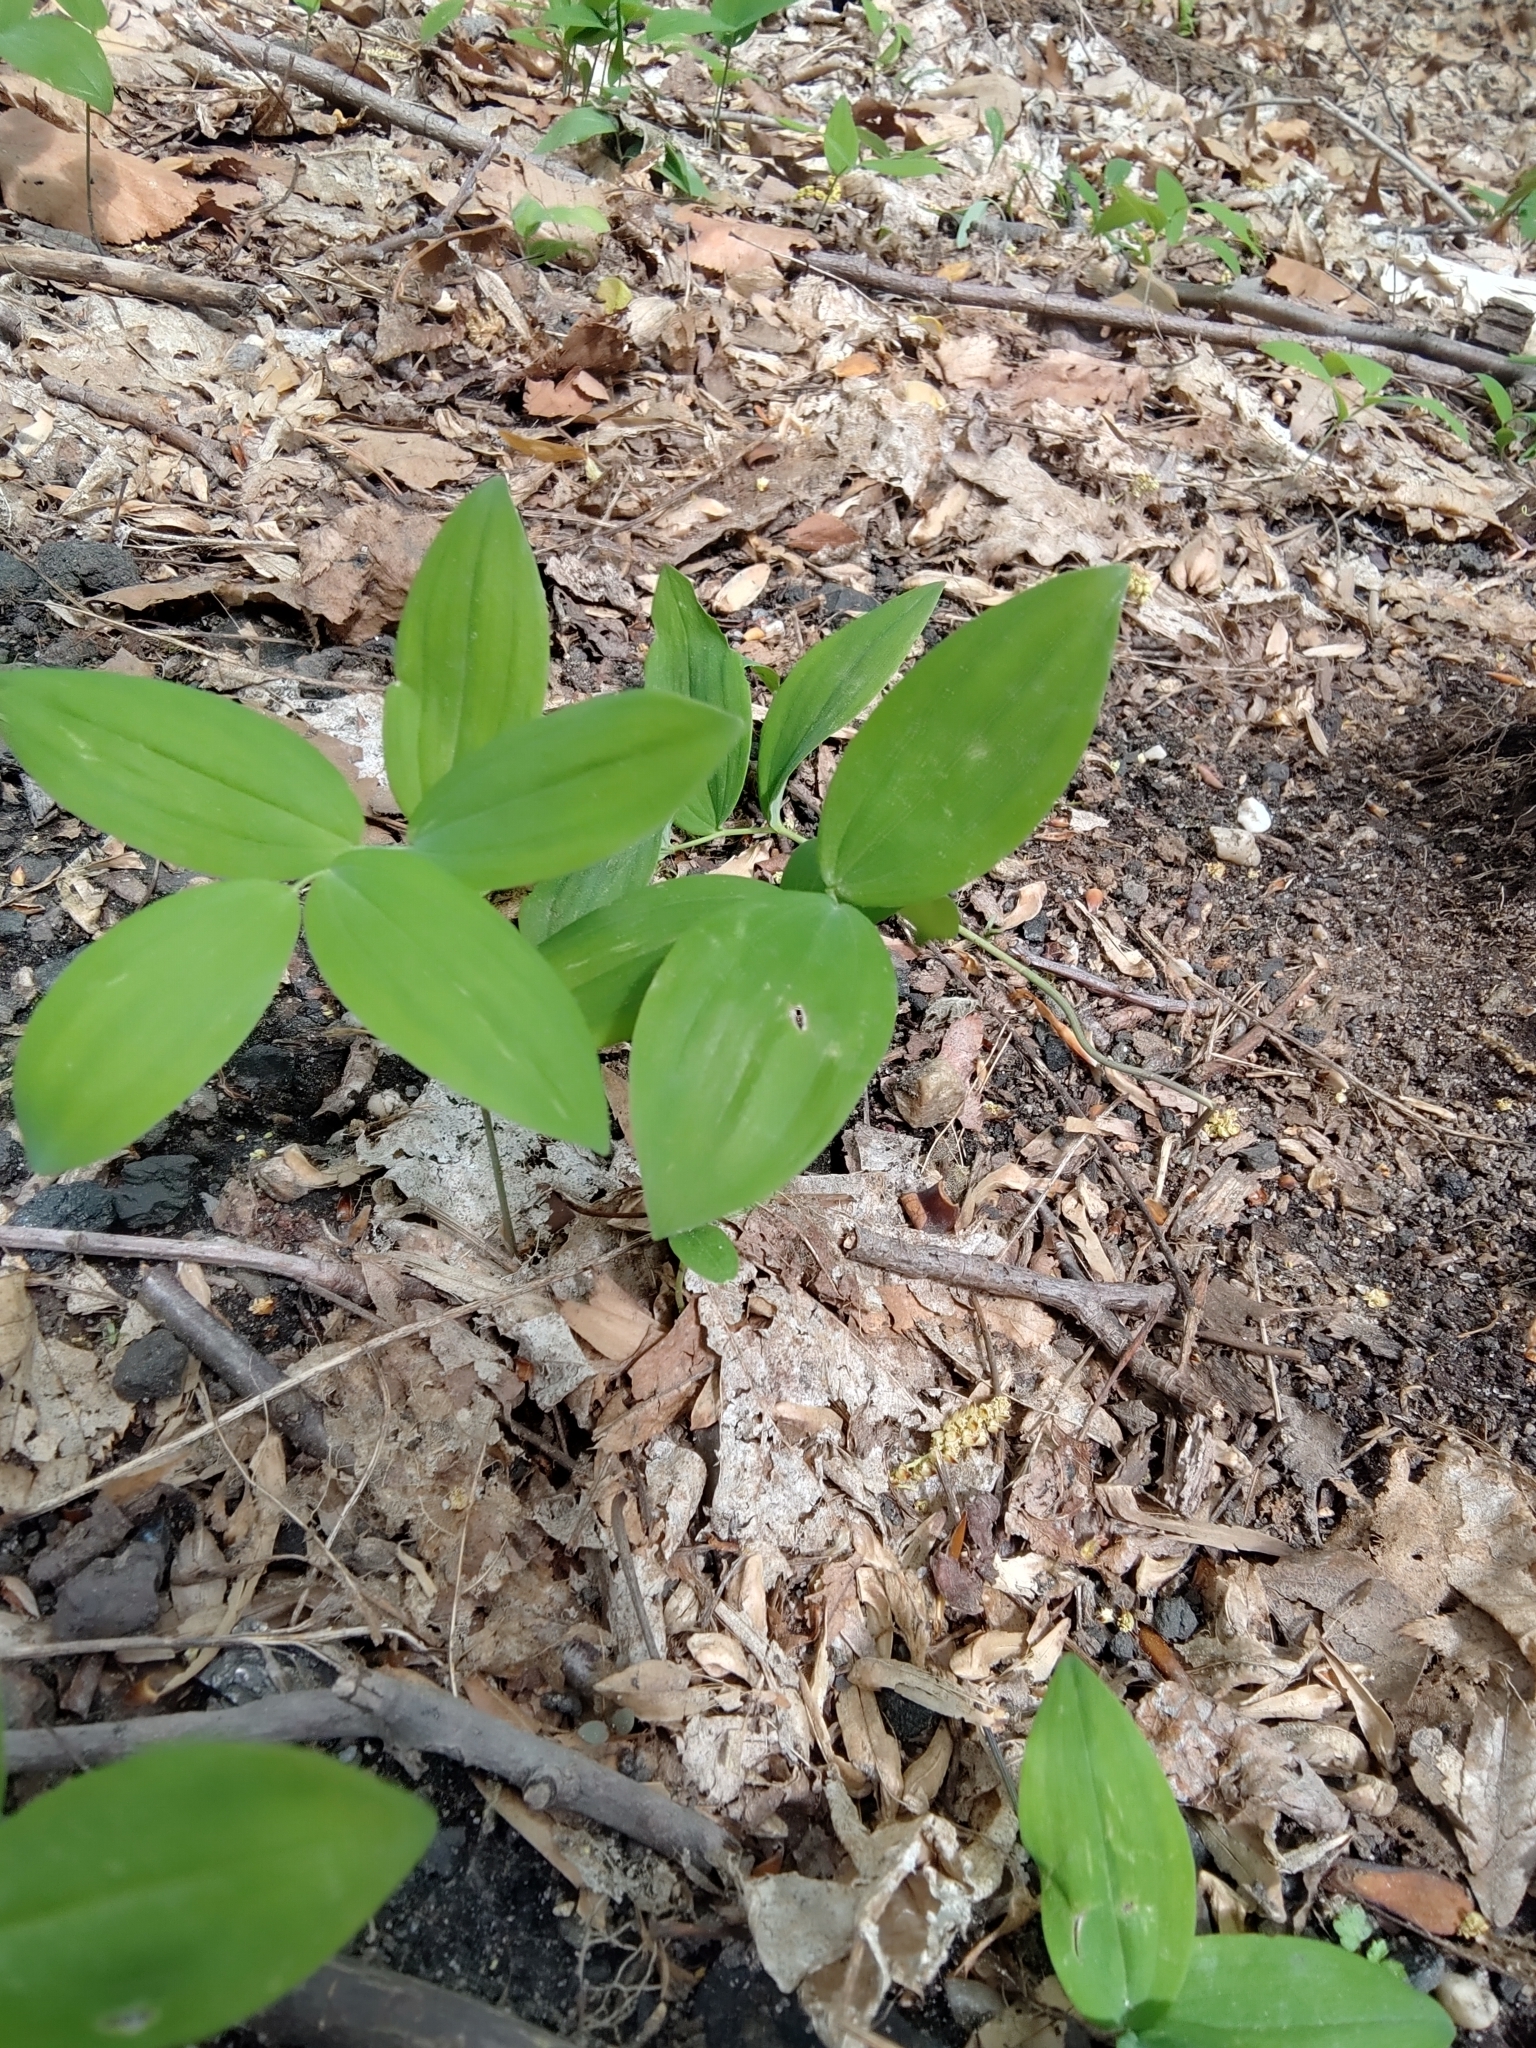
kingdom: Plantae
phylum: Tracheophyta
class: Liliopsida
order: Asparagales
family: Asparagaceae
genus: Polygonatum
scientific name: Polygonatum pubescens
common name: Downy solomon's seal
